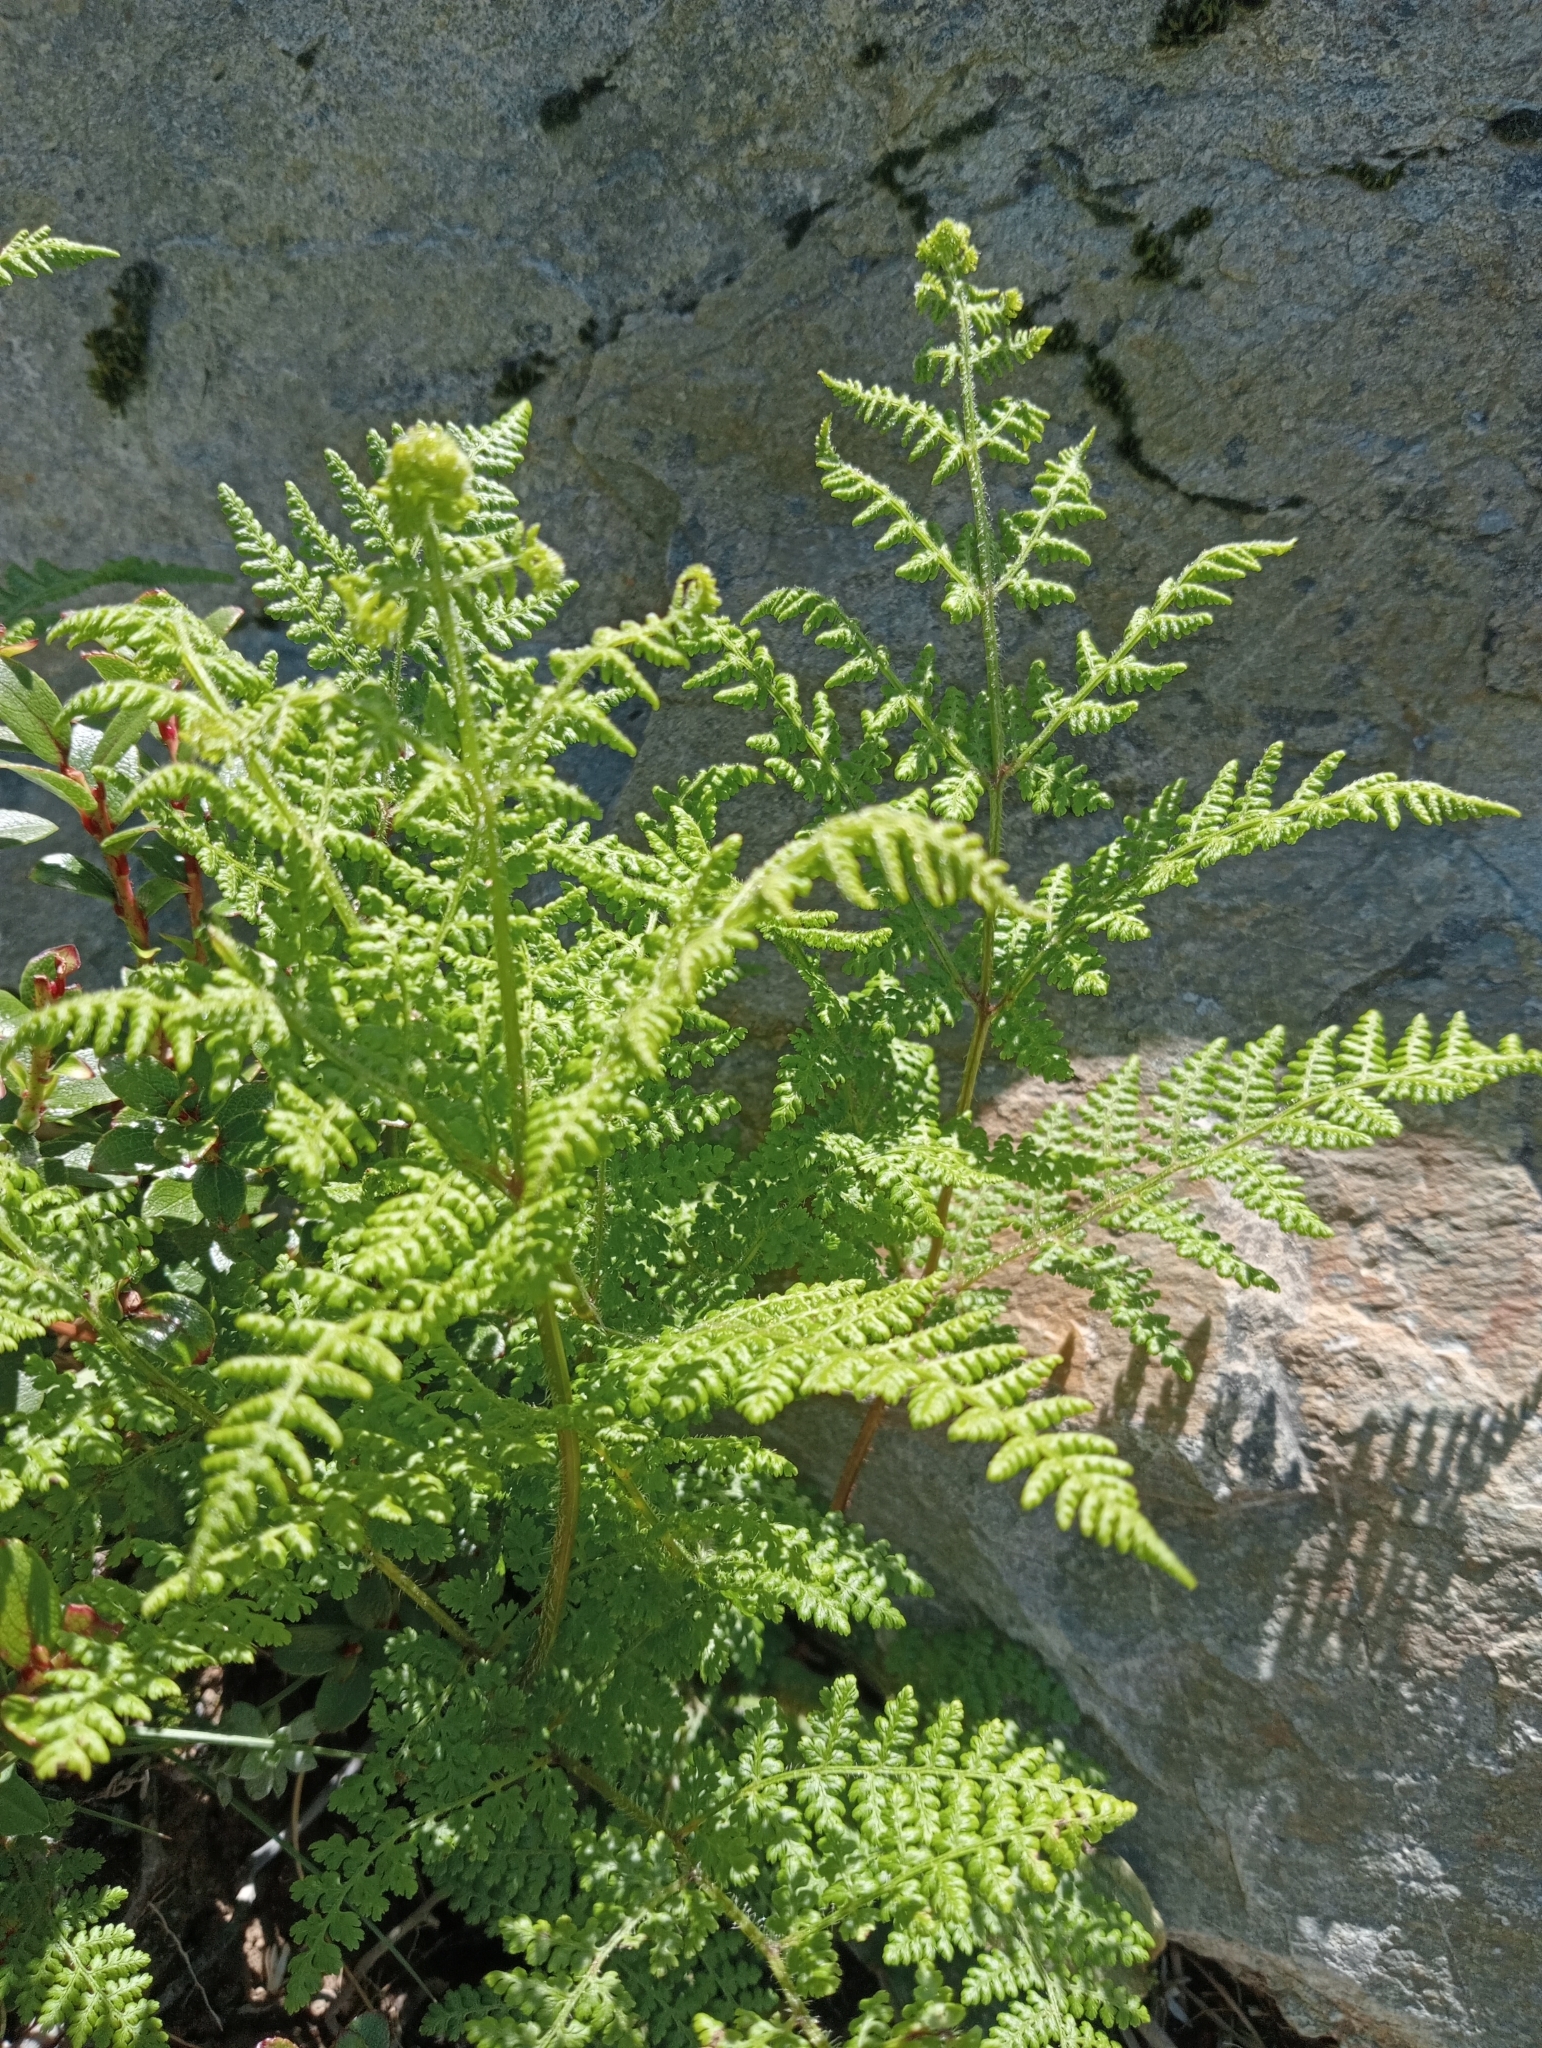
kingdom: Plantae
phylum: Tracheophyta
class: Polypodiopsida
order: Polypodiales
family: Dennstaedtiaceae
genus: Hypolepis
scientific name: Hypolepis millefolium
